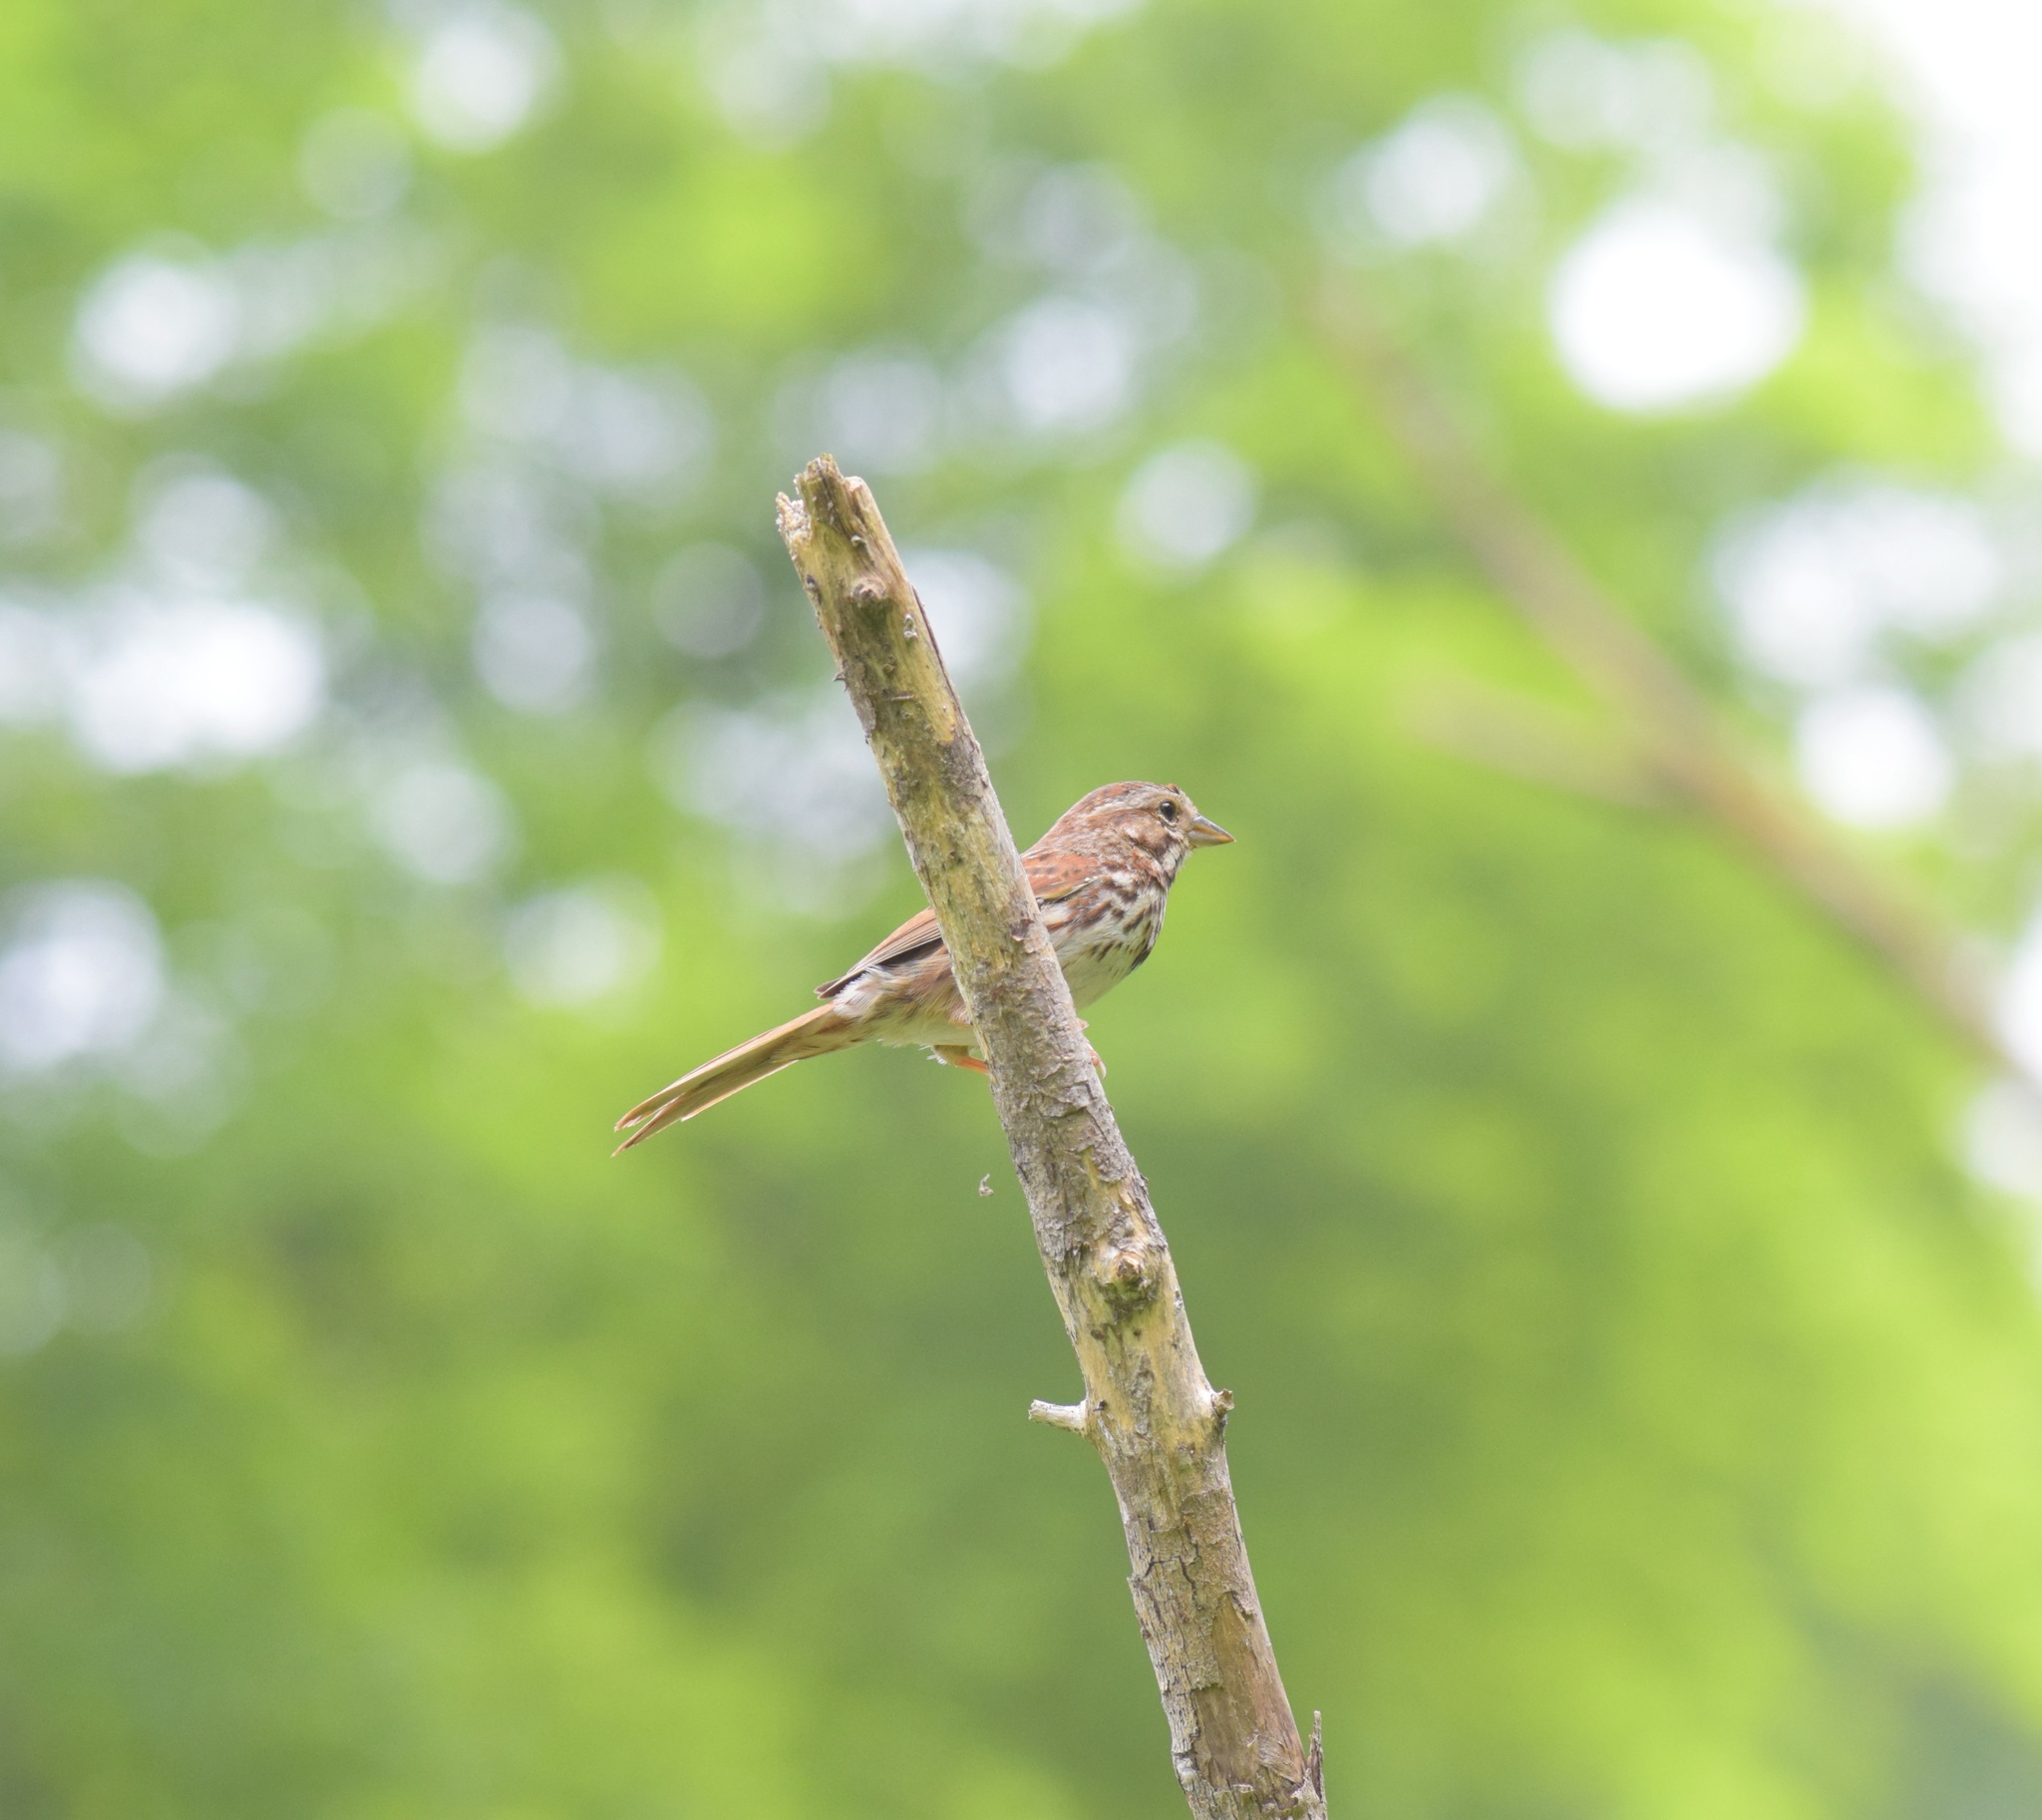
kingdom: Animalia
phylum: Chordata
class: Aves
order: Passeriformes
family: Passerellidae
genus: Melospiza
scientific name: Melospiza melodia
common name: Song sparrow
